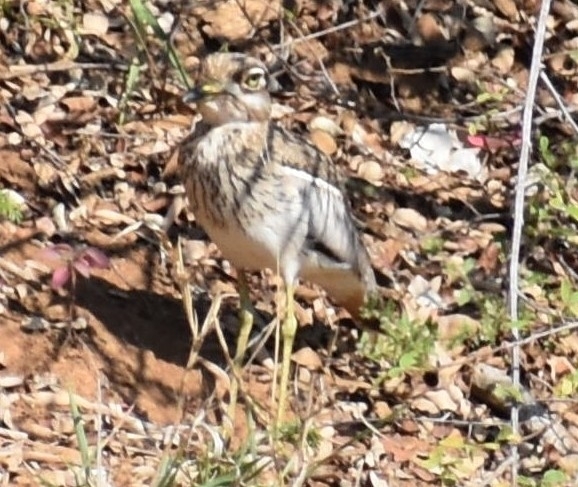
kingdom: Animalia
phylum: Chordata
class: Aves
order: Charadriiformes
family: Burhinidae
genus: Burhinus
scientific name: Burhinus vermiculatus
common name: Water thick-knee
